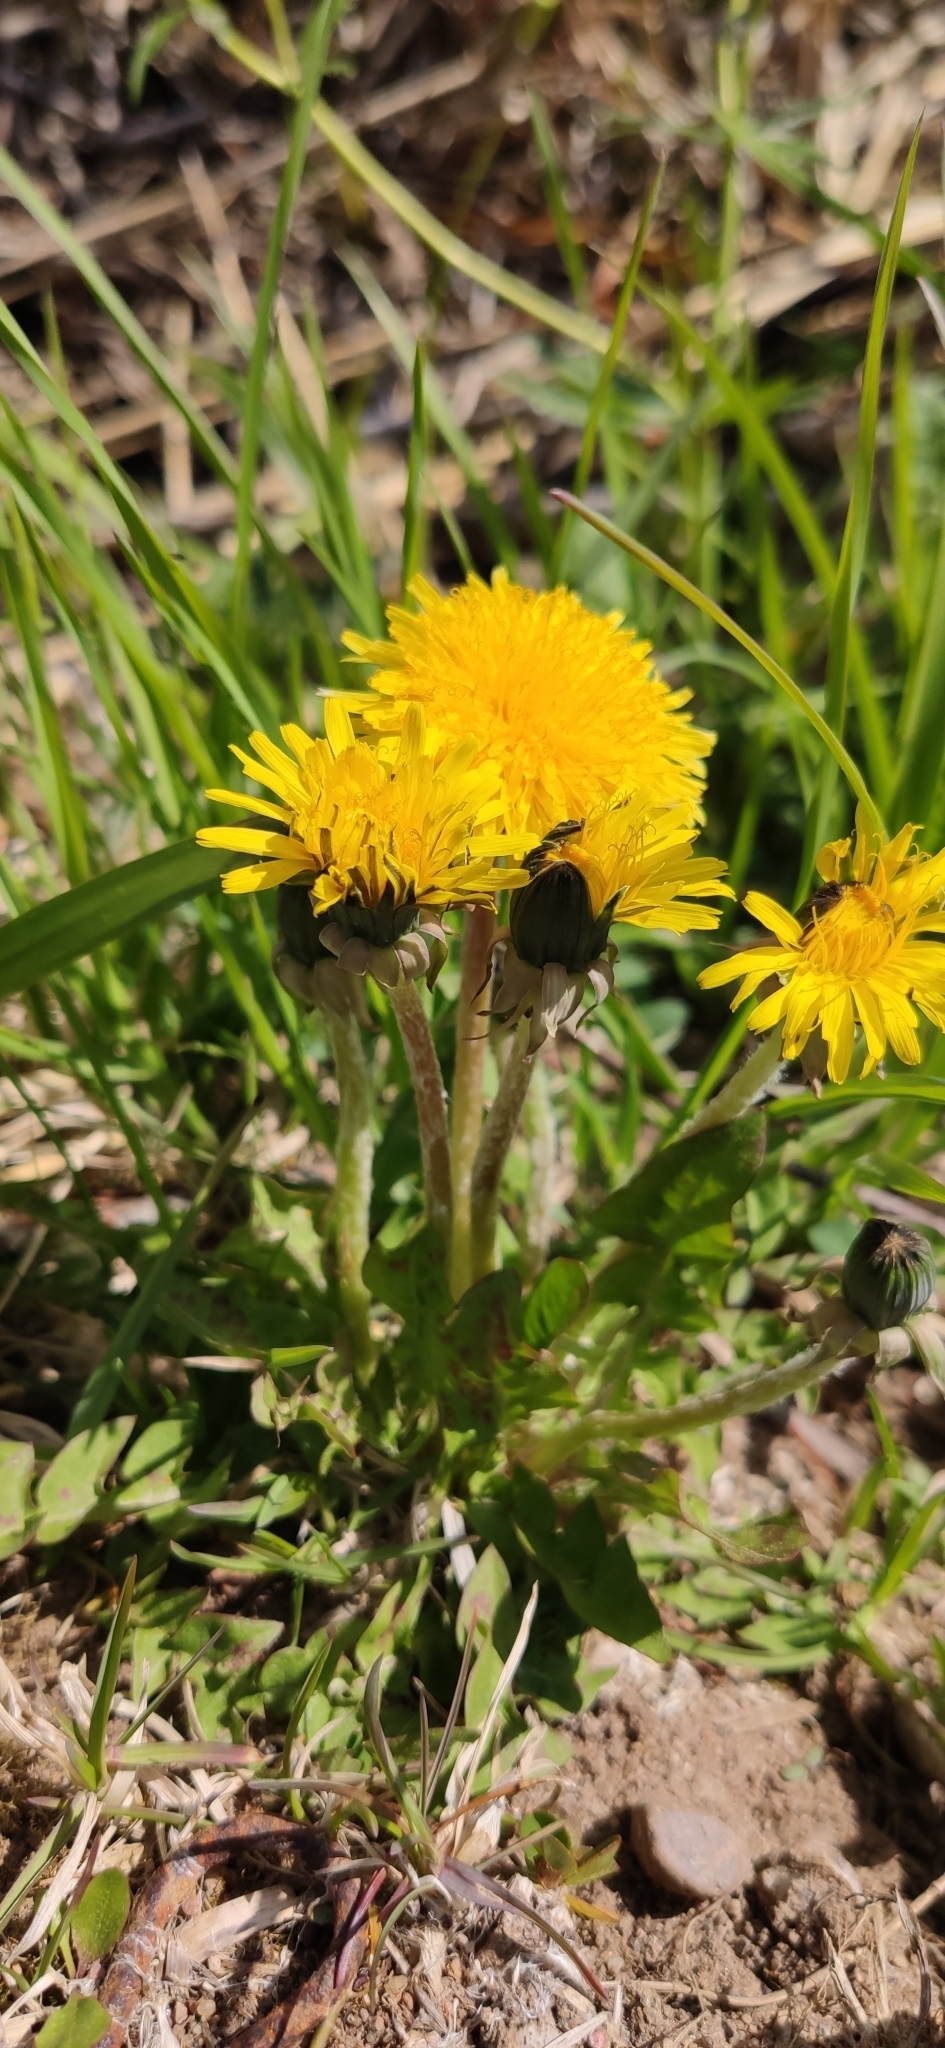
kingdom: Plantae
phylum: Tracheophyta
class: Magnoliopsida
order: Asterales
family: Asteraceae
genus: Taraxacum
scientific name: Taraxacum officinale
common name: Common dandelion
